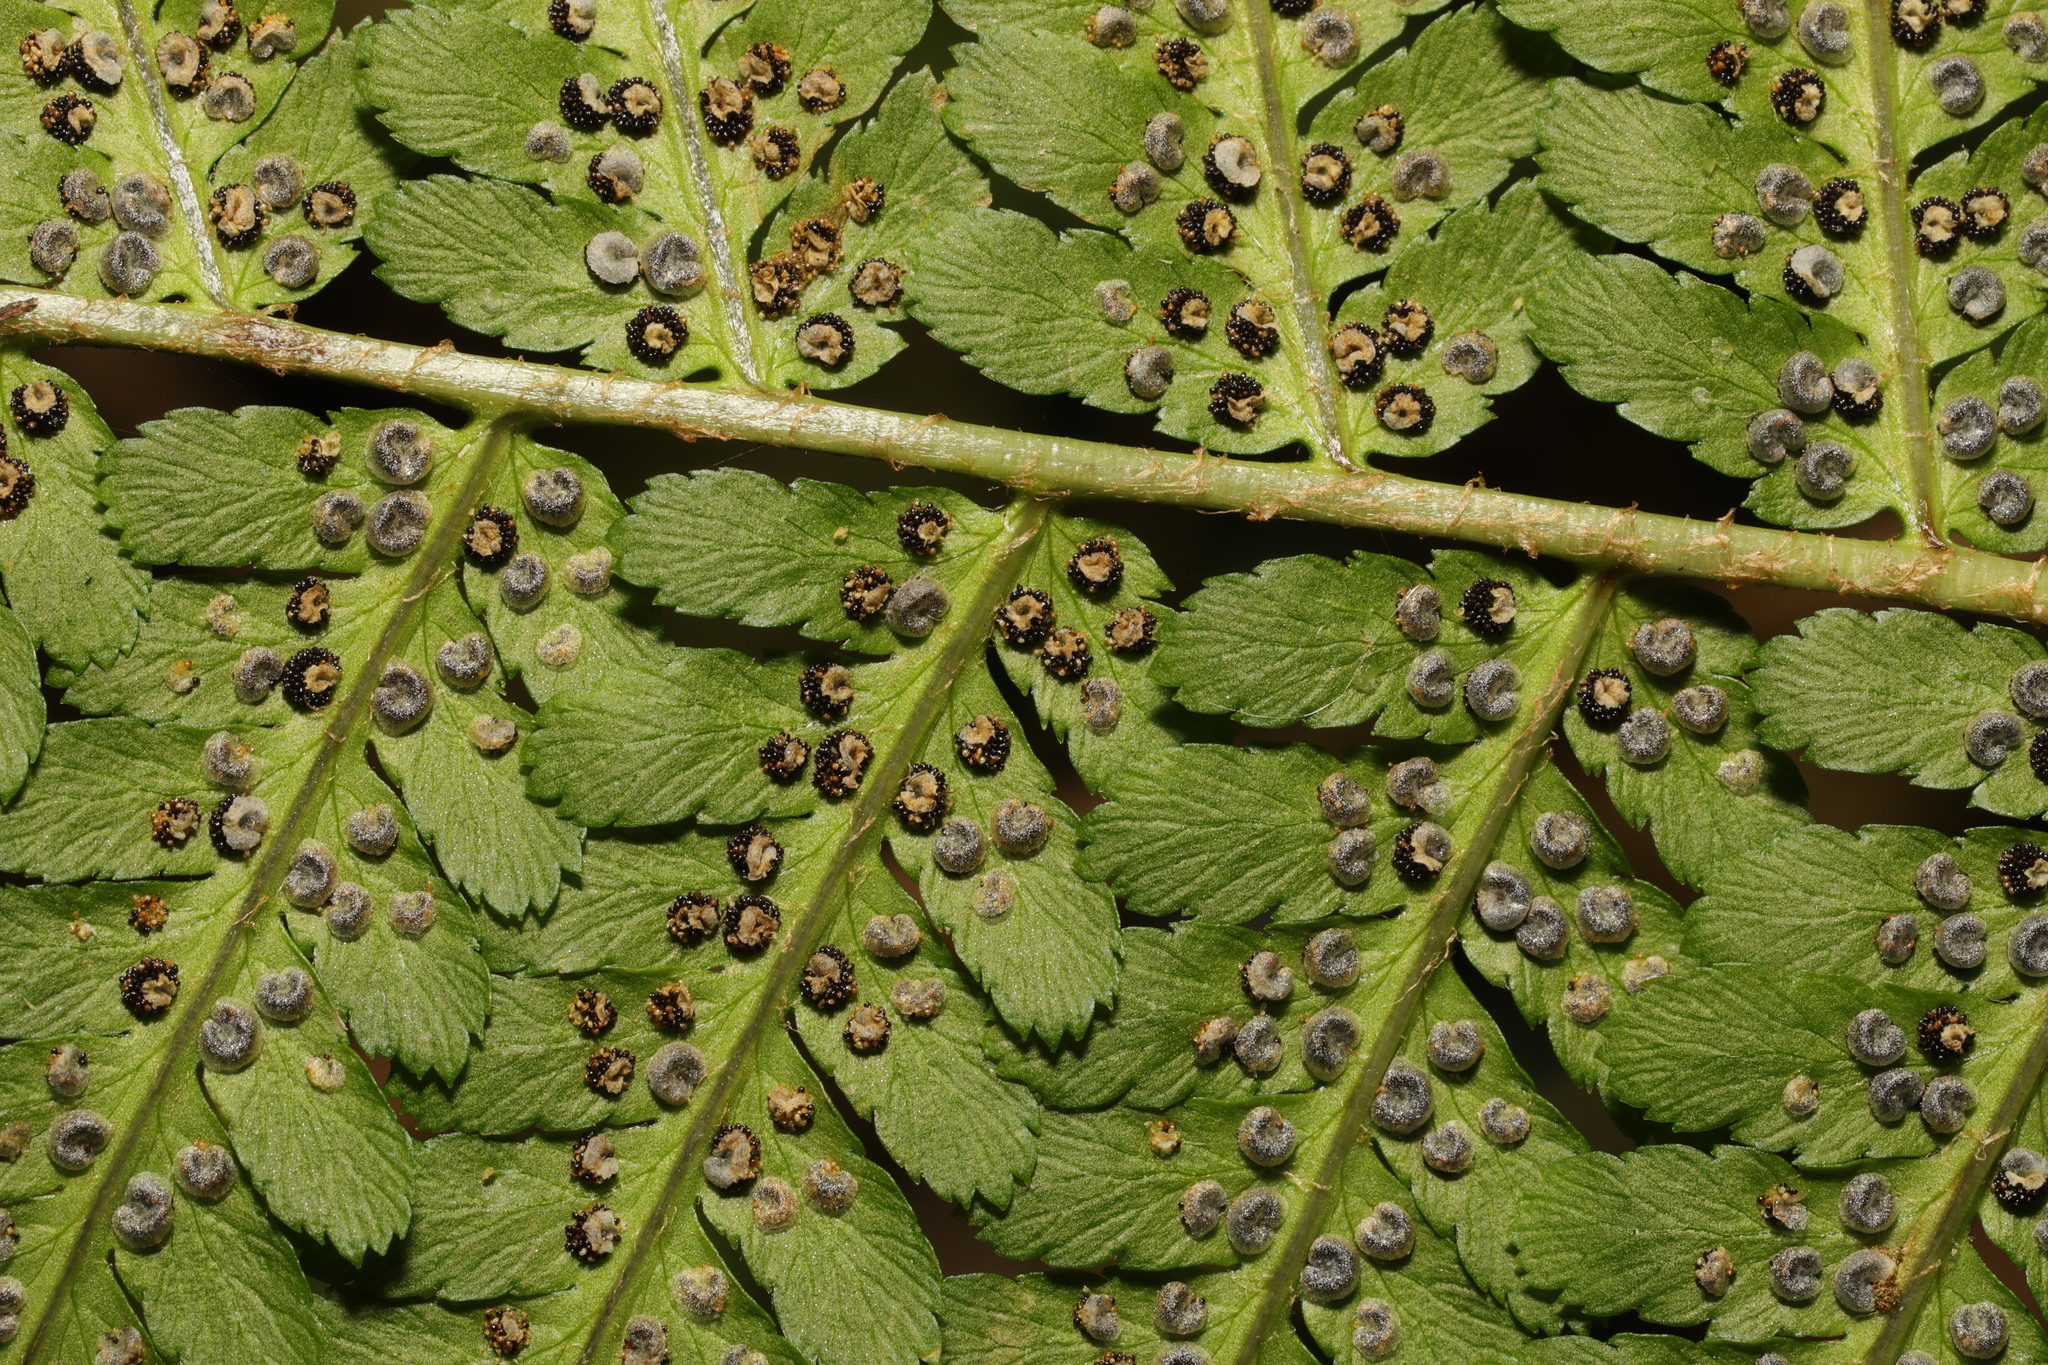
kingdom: Plantae
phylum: Tracheophyta
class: Polypodiopsida
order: Polypodiales
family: Dryopteridaceae
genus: Dryopteris
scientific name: Dryopteris filix-mas
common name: Male fern
